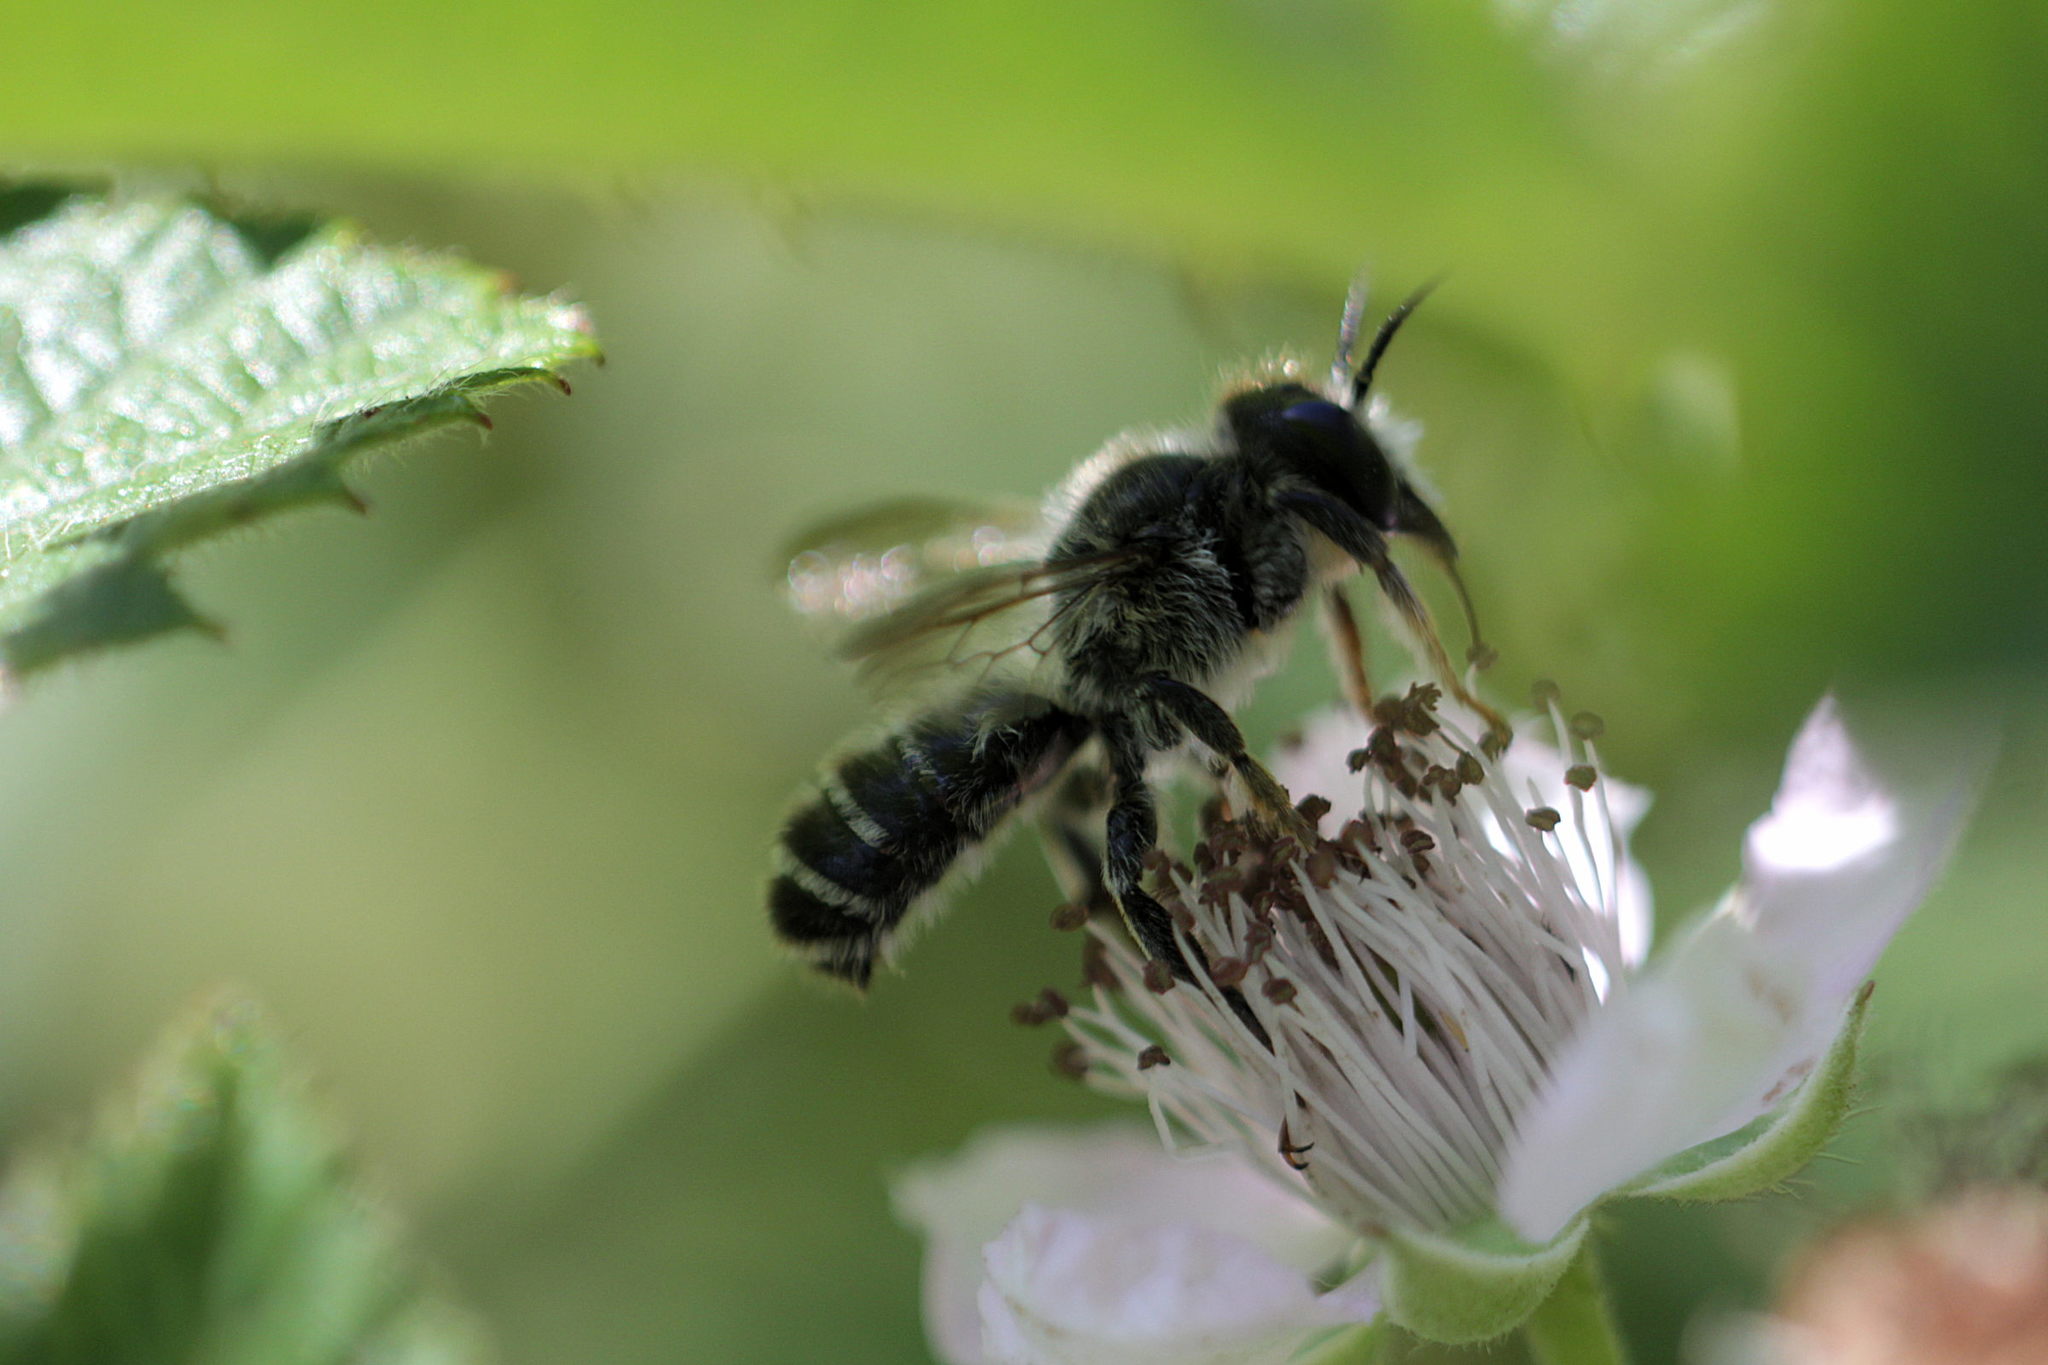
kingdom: Animalia
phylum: Arthropoda
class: Insecta
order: Hymenoptera
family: Megachilidae
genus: Megachile
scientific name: Megachile ericetorum
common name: Leafcutter bee
